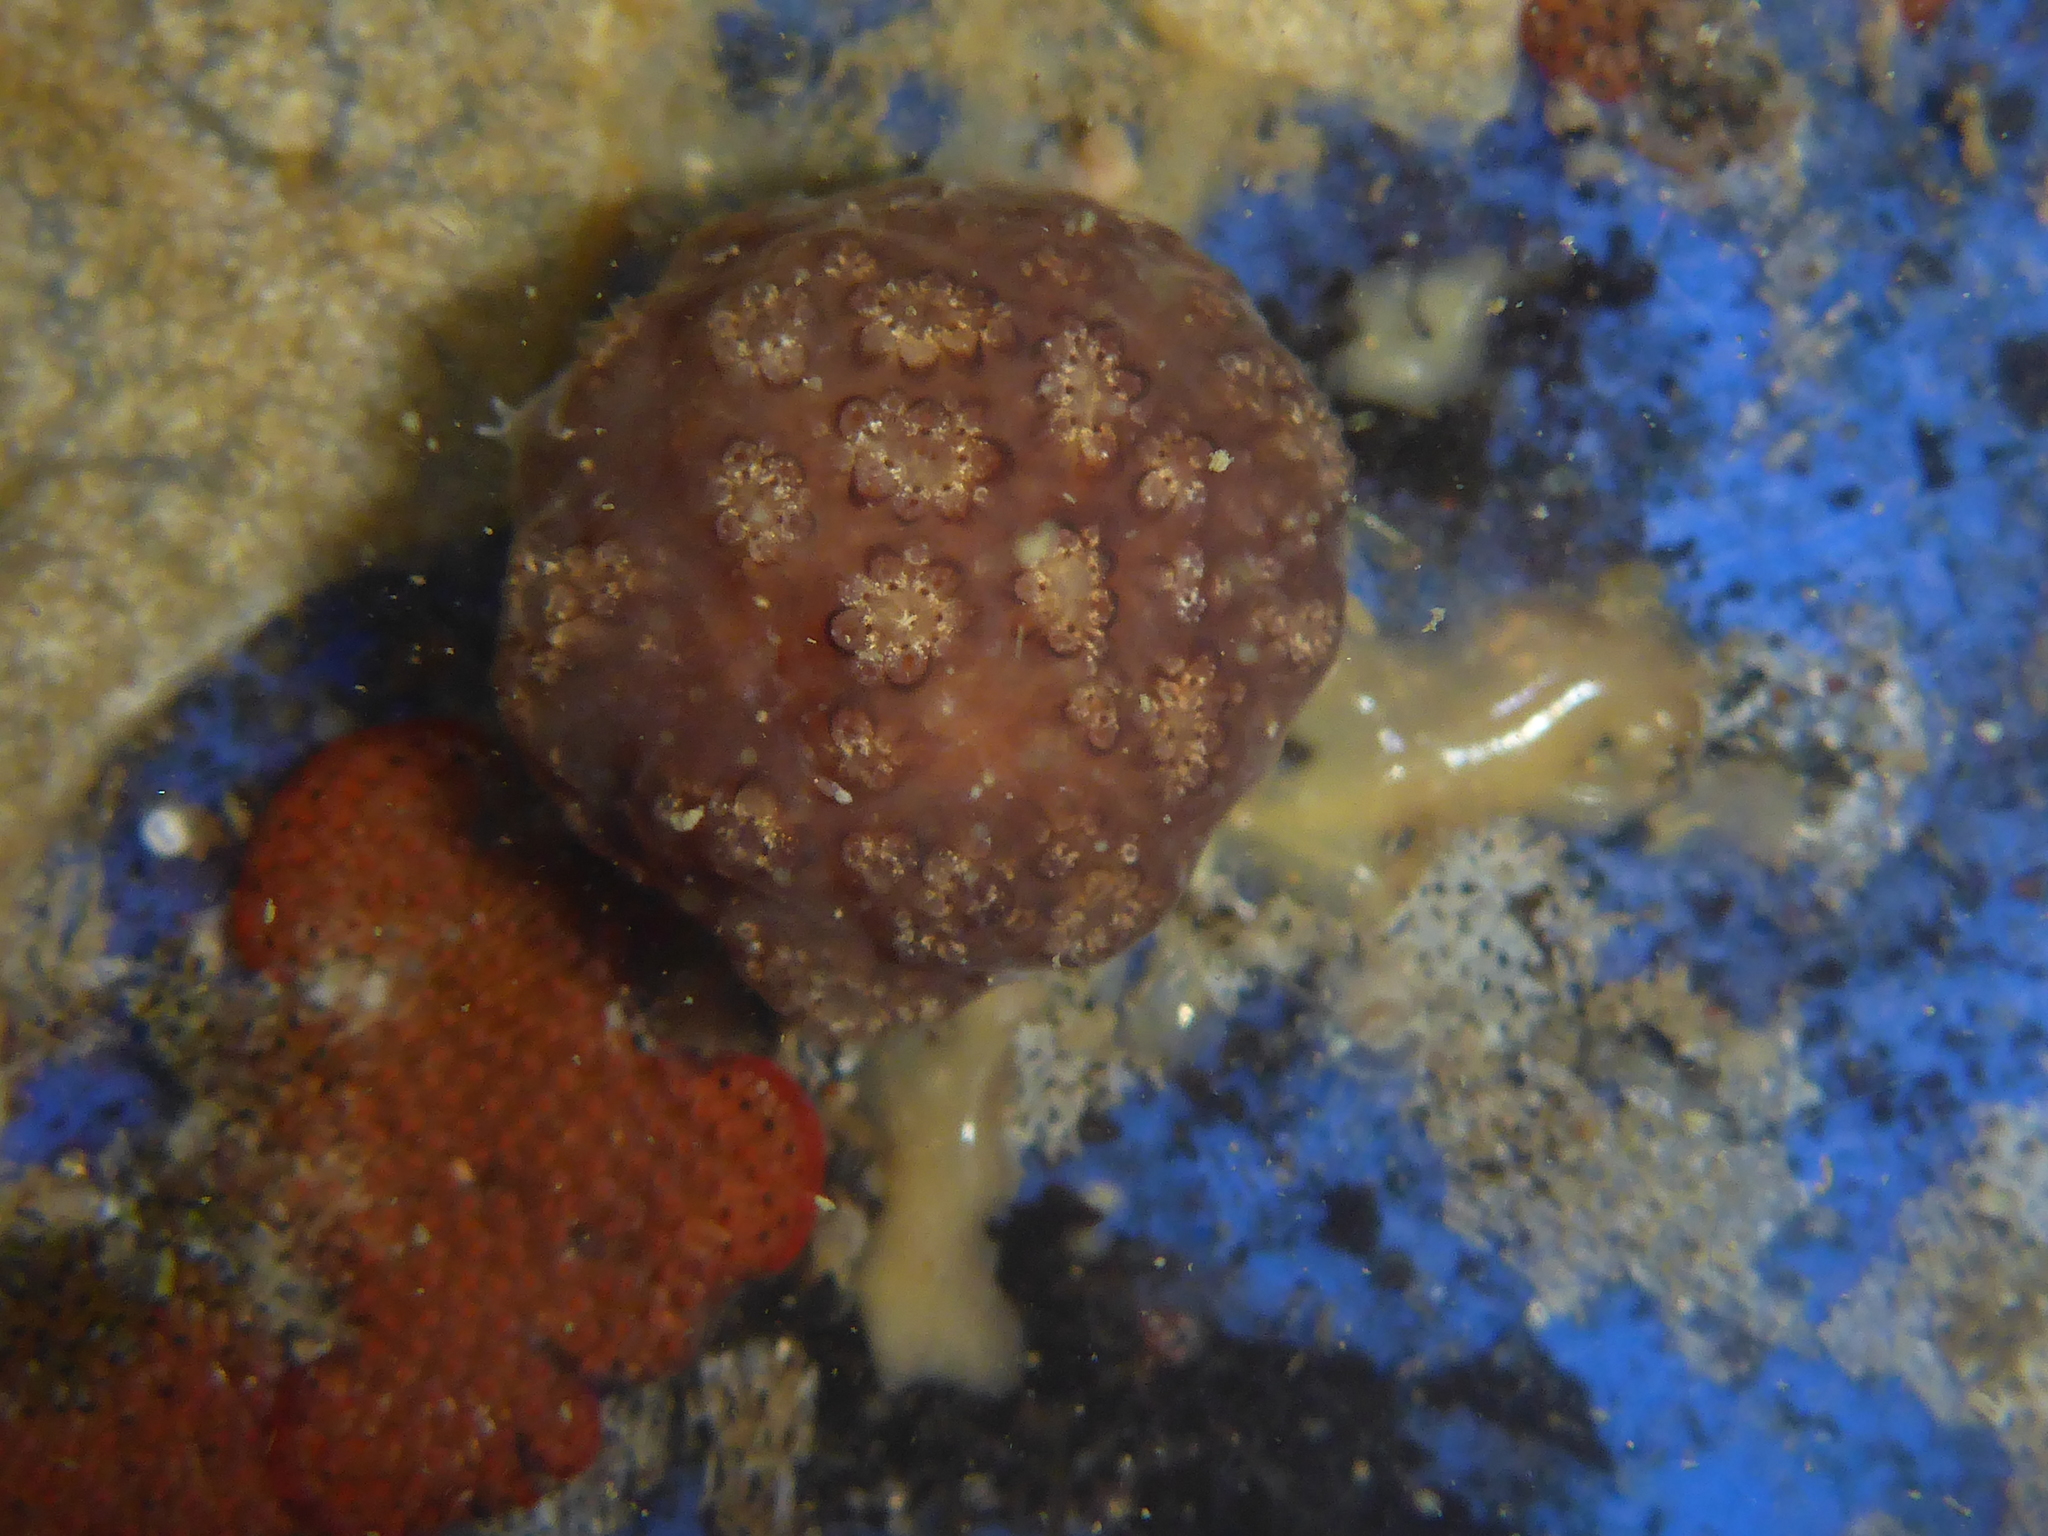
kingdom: Animalia
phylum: Chordata
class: Ascidiacea
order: Stolidobranchia
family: Styelidae
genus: Botryllus
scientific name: Botryllus schlosseri
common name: Golden star tunicate
